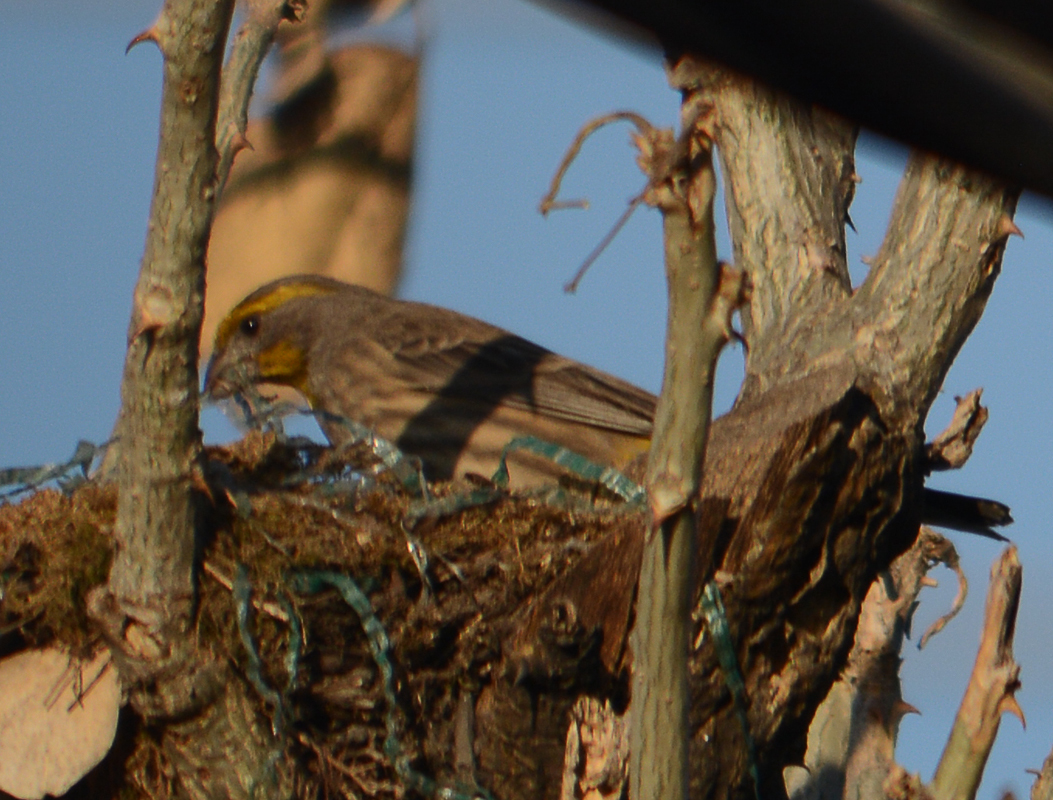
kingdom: Animalia
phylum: Chordata
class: Aves
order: Passeriformes
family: Fringillidae
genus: Haemorhous
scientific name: Haemorhous mexicanus
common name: House finch
